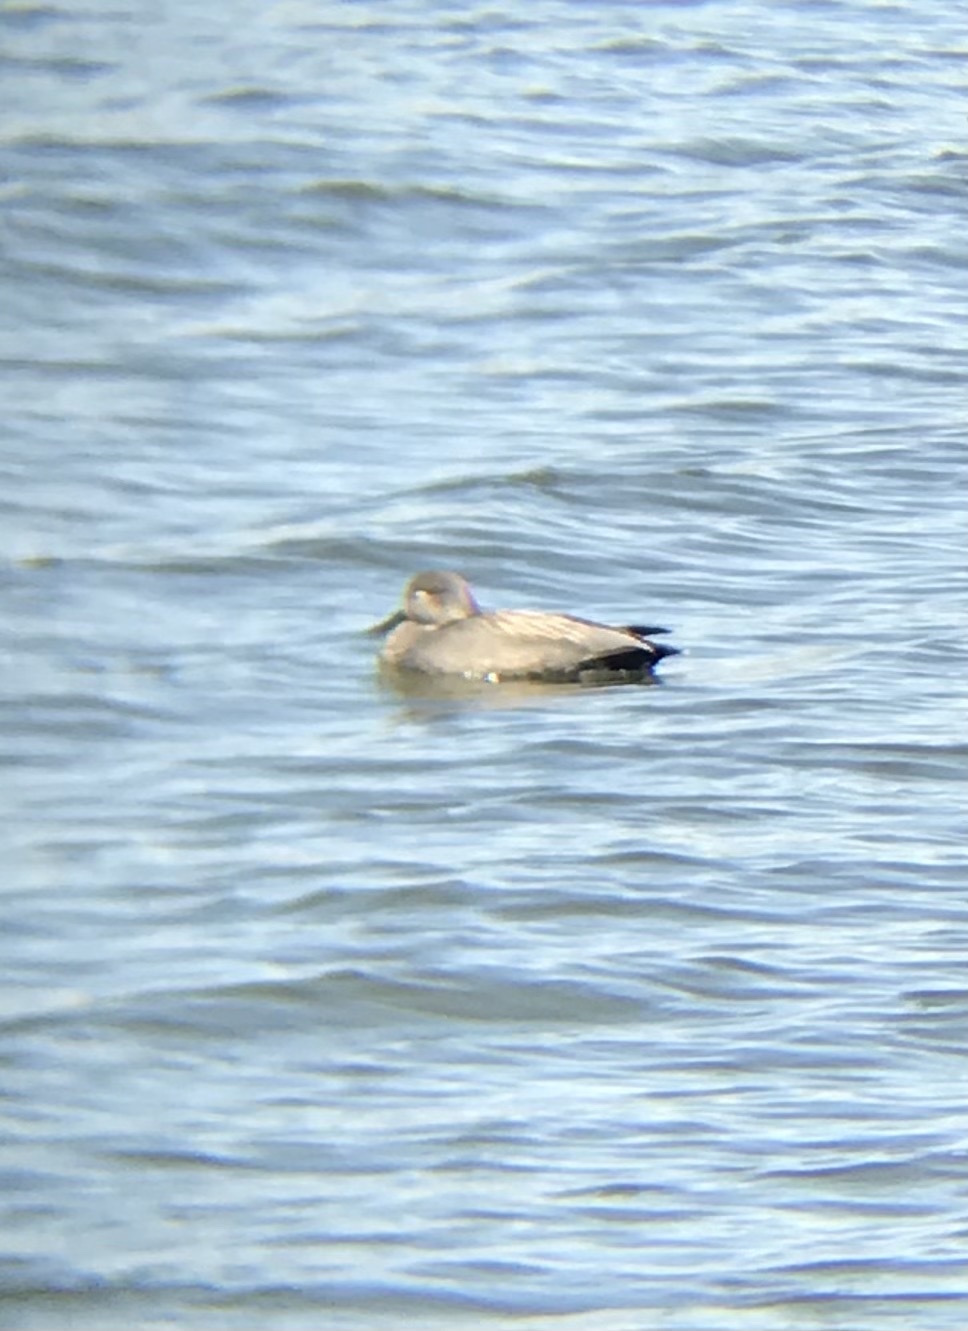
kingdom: Animalia
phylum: Chordata
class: Aves
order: Anseriformes
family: Anatidae
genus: Mareca
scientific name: Mareca strepera
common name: Gadwall
